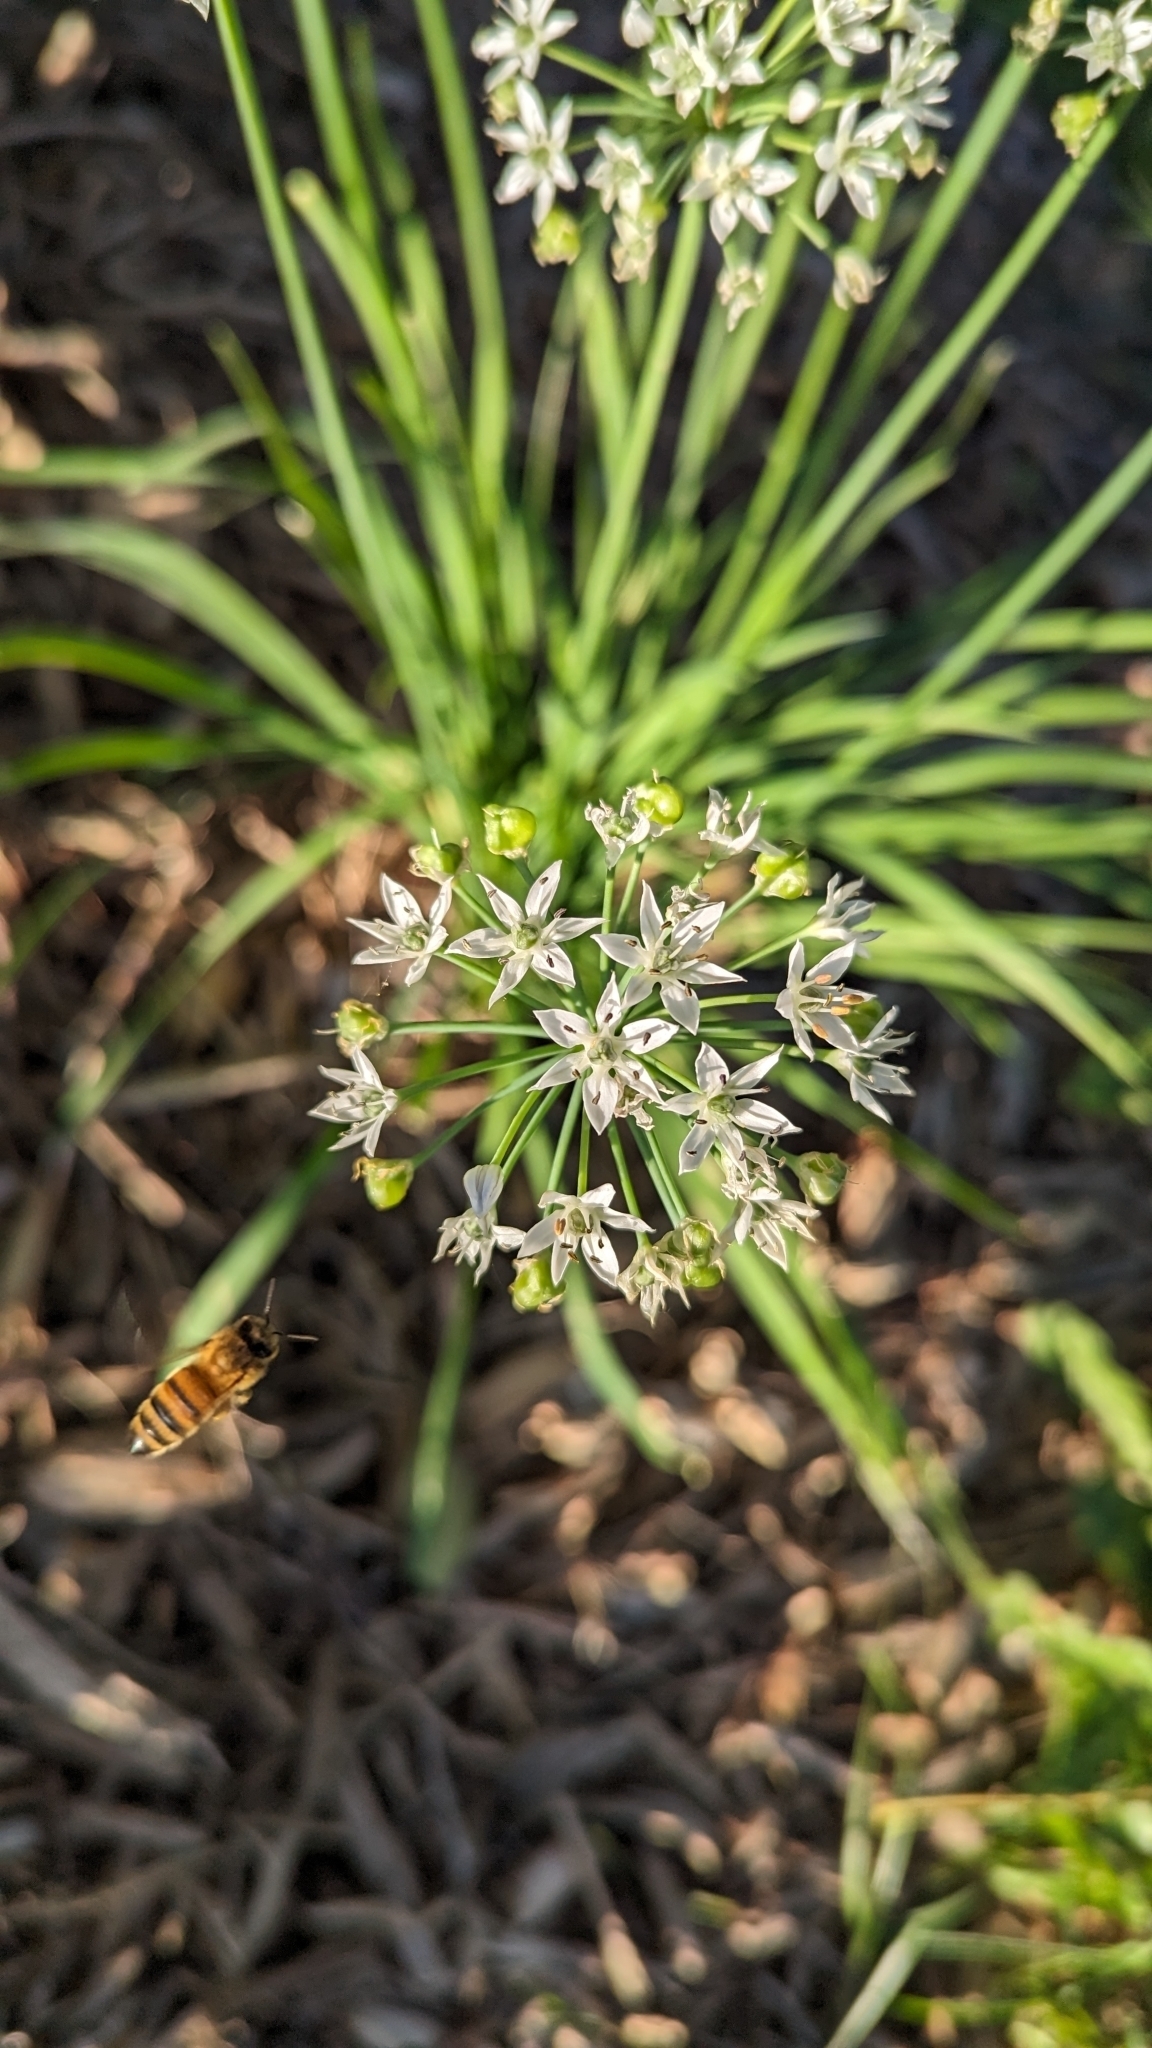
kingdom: Plantae
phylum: Tracheophyta
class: Liliopsida
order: Asparagales
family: Amaryllidaceae
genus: Allium
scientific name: Allium tuberosum
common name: Chinese chives
